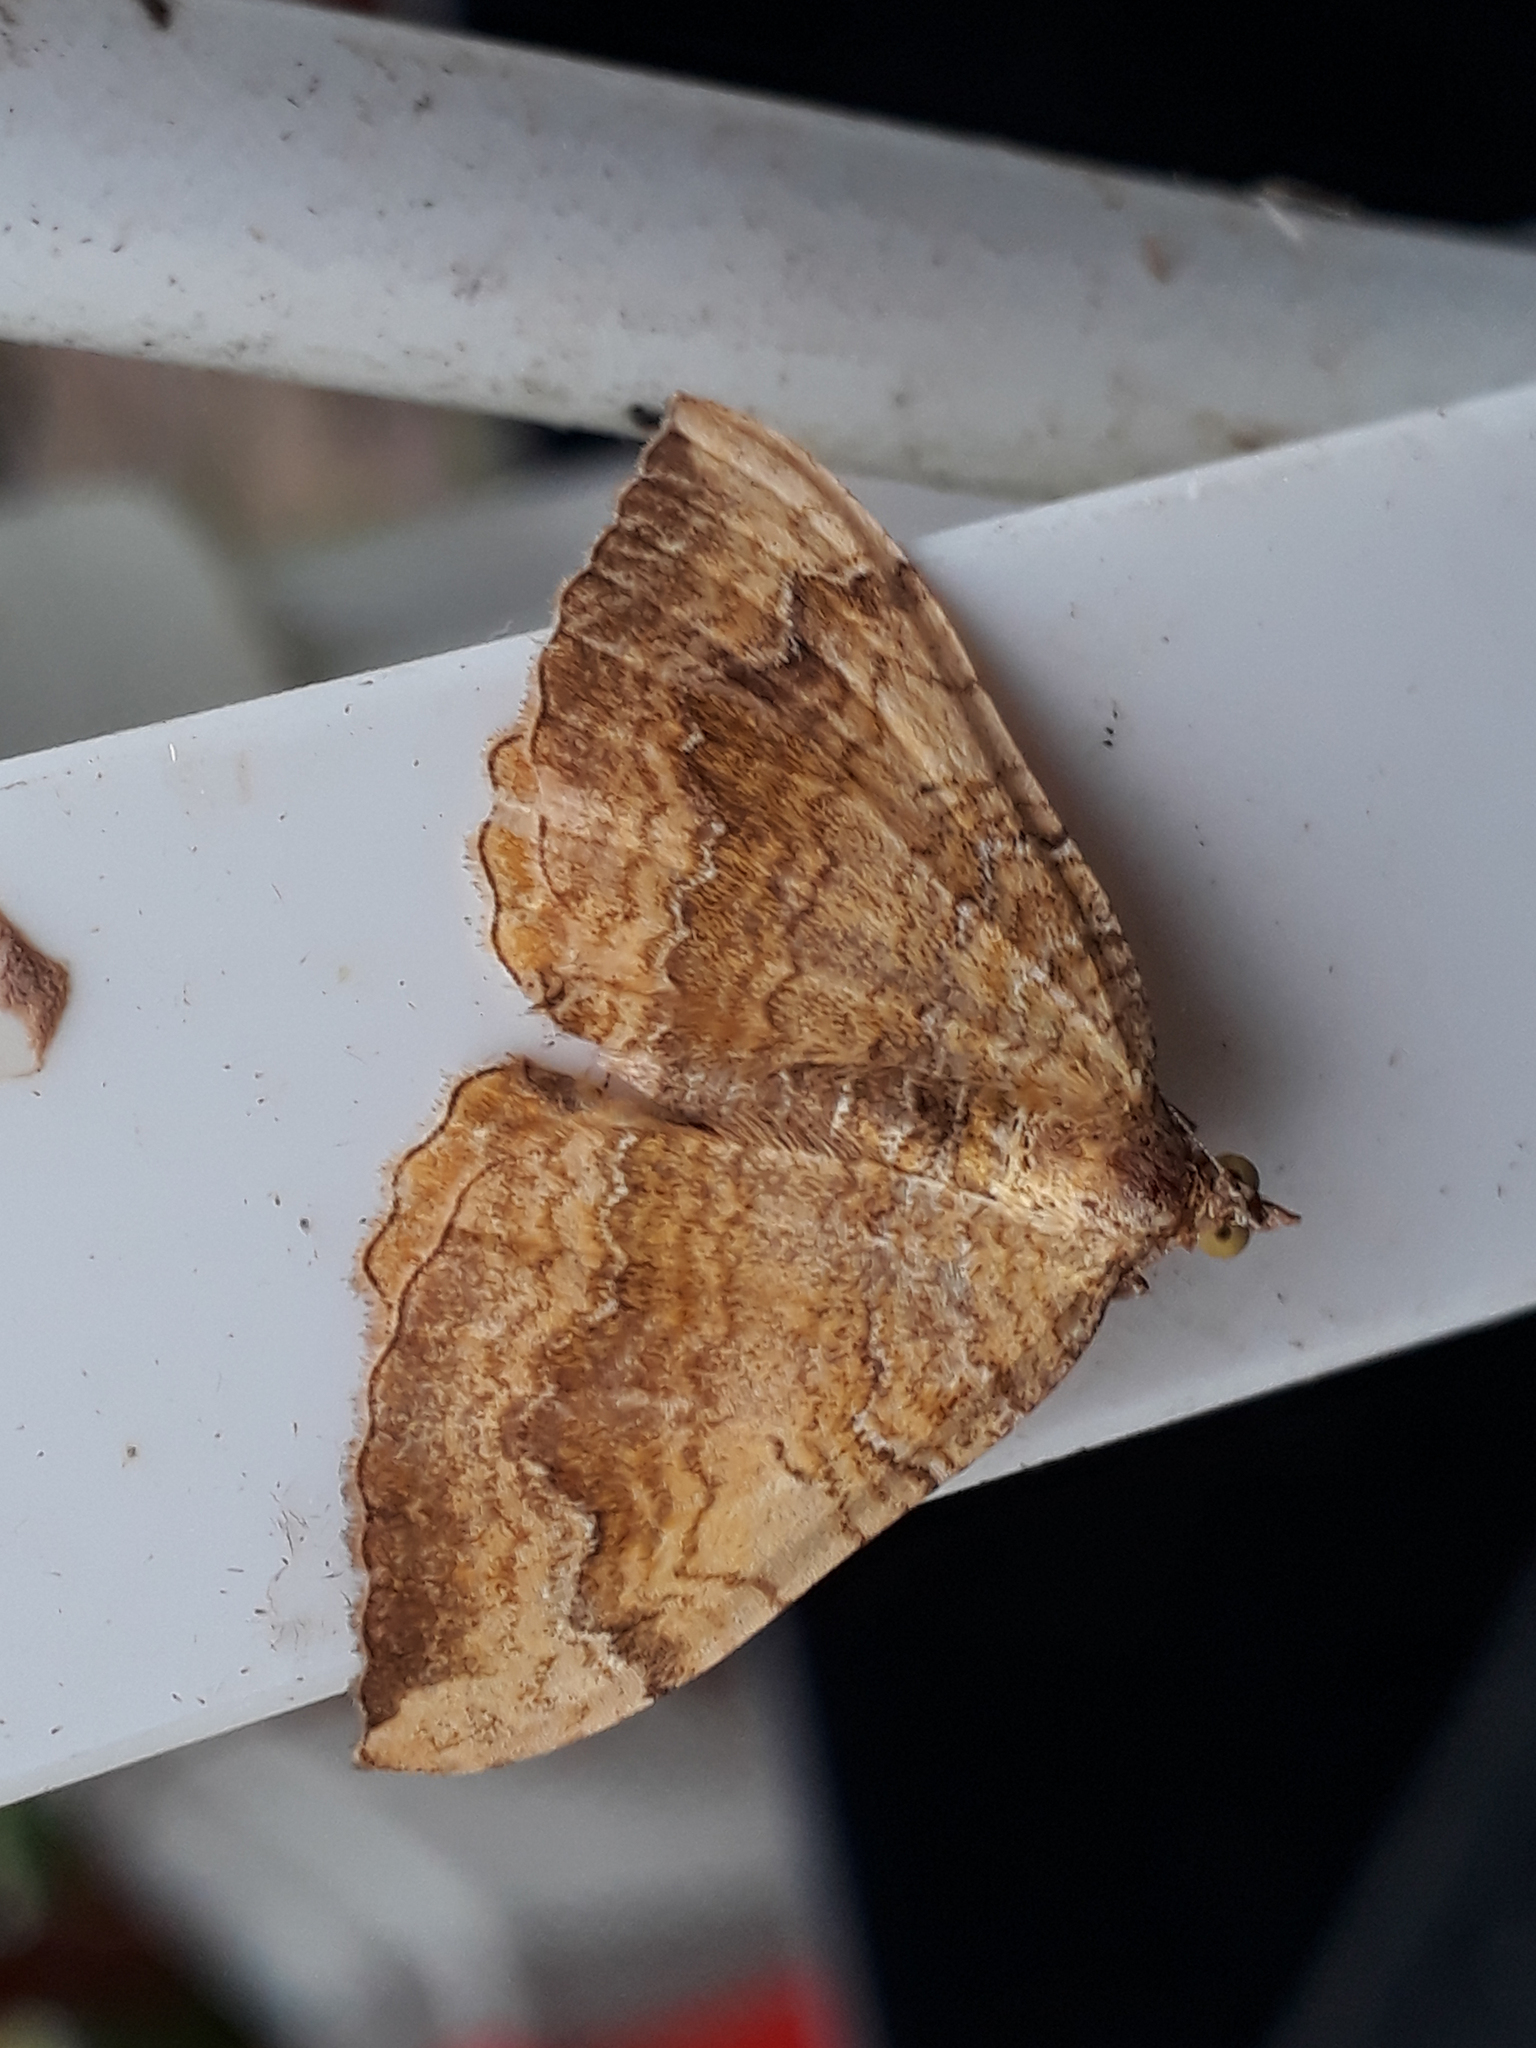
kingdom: Animalia
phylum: Arthropoda
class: Insecta
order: Lepidoptera
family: Geometridae
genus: Camptogramma
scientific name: Camptogramma bilineata
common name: Yellow shell
